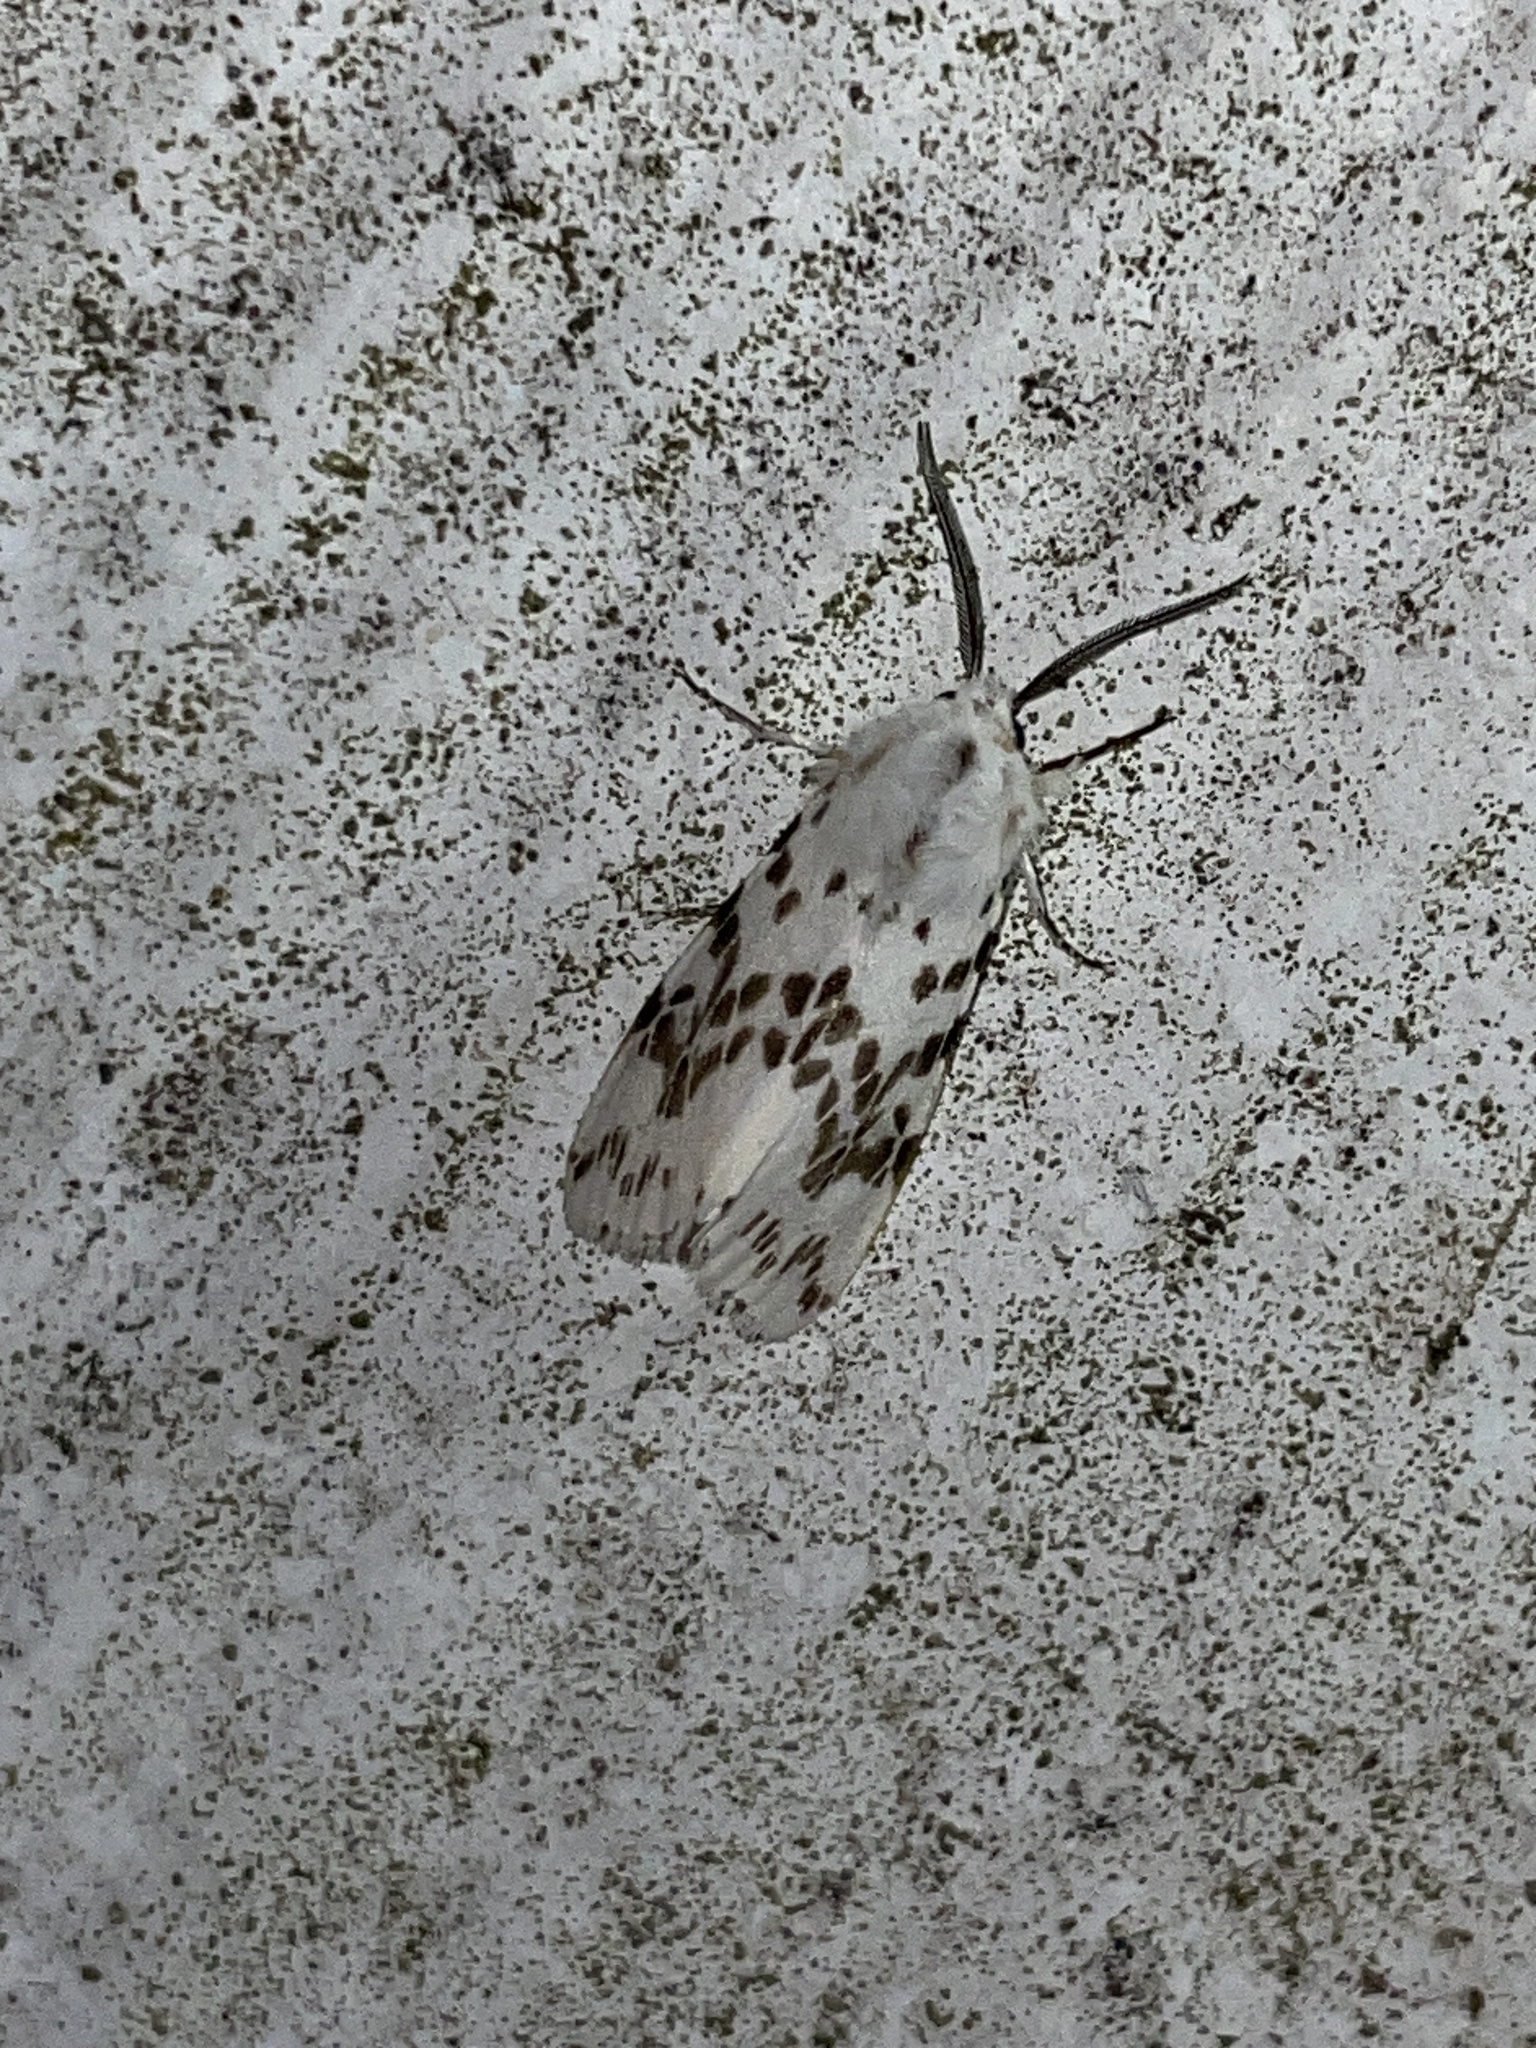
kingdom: Animalia
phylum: Arthropoda
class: Insecta
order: Lepidoptera
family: Erebidae
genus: Hyphantria
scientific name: Hyphantria cunea
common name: American white moth
